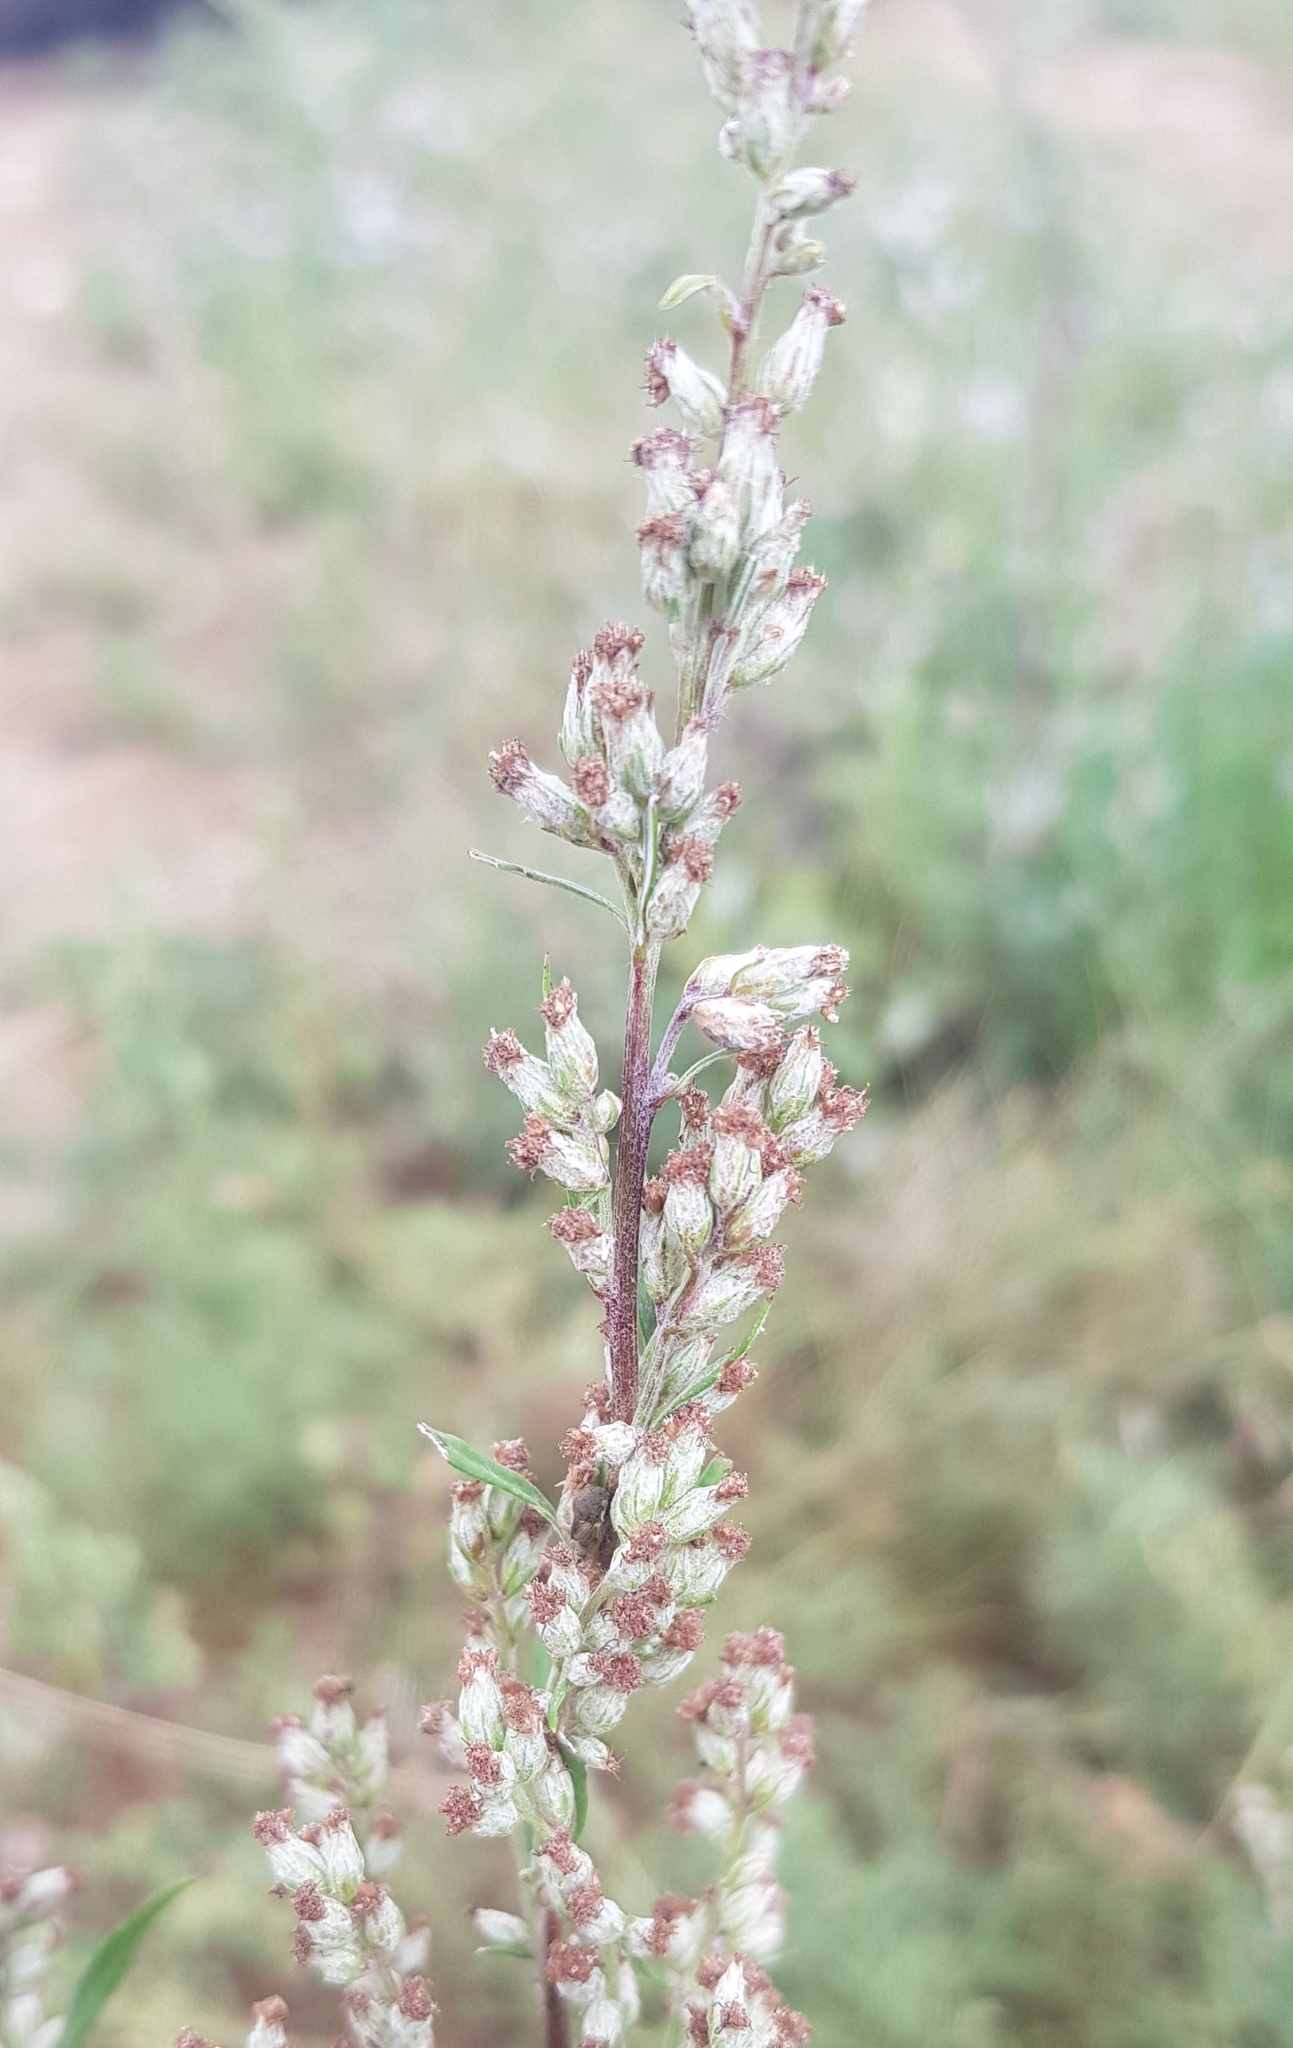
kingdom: Plantae
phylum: Tracheophyta
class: Magnoliopsida
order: Asterales
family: Asteraceae
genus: Artemisia
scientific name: Artemisia vulgaris
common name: Mugwort
